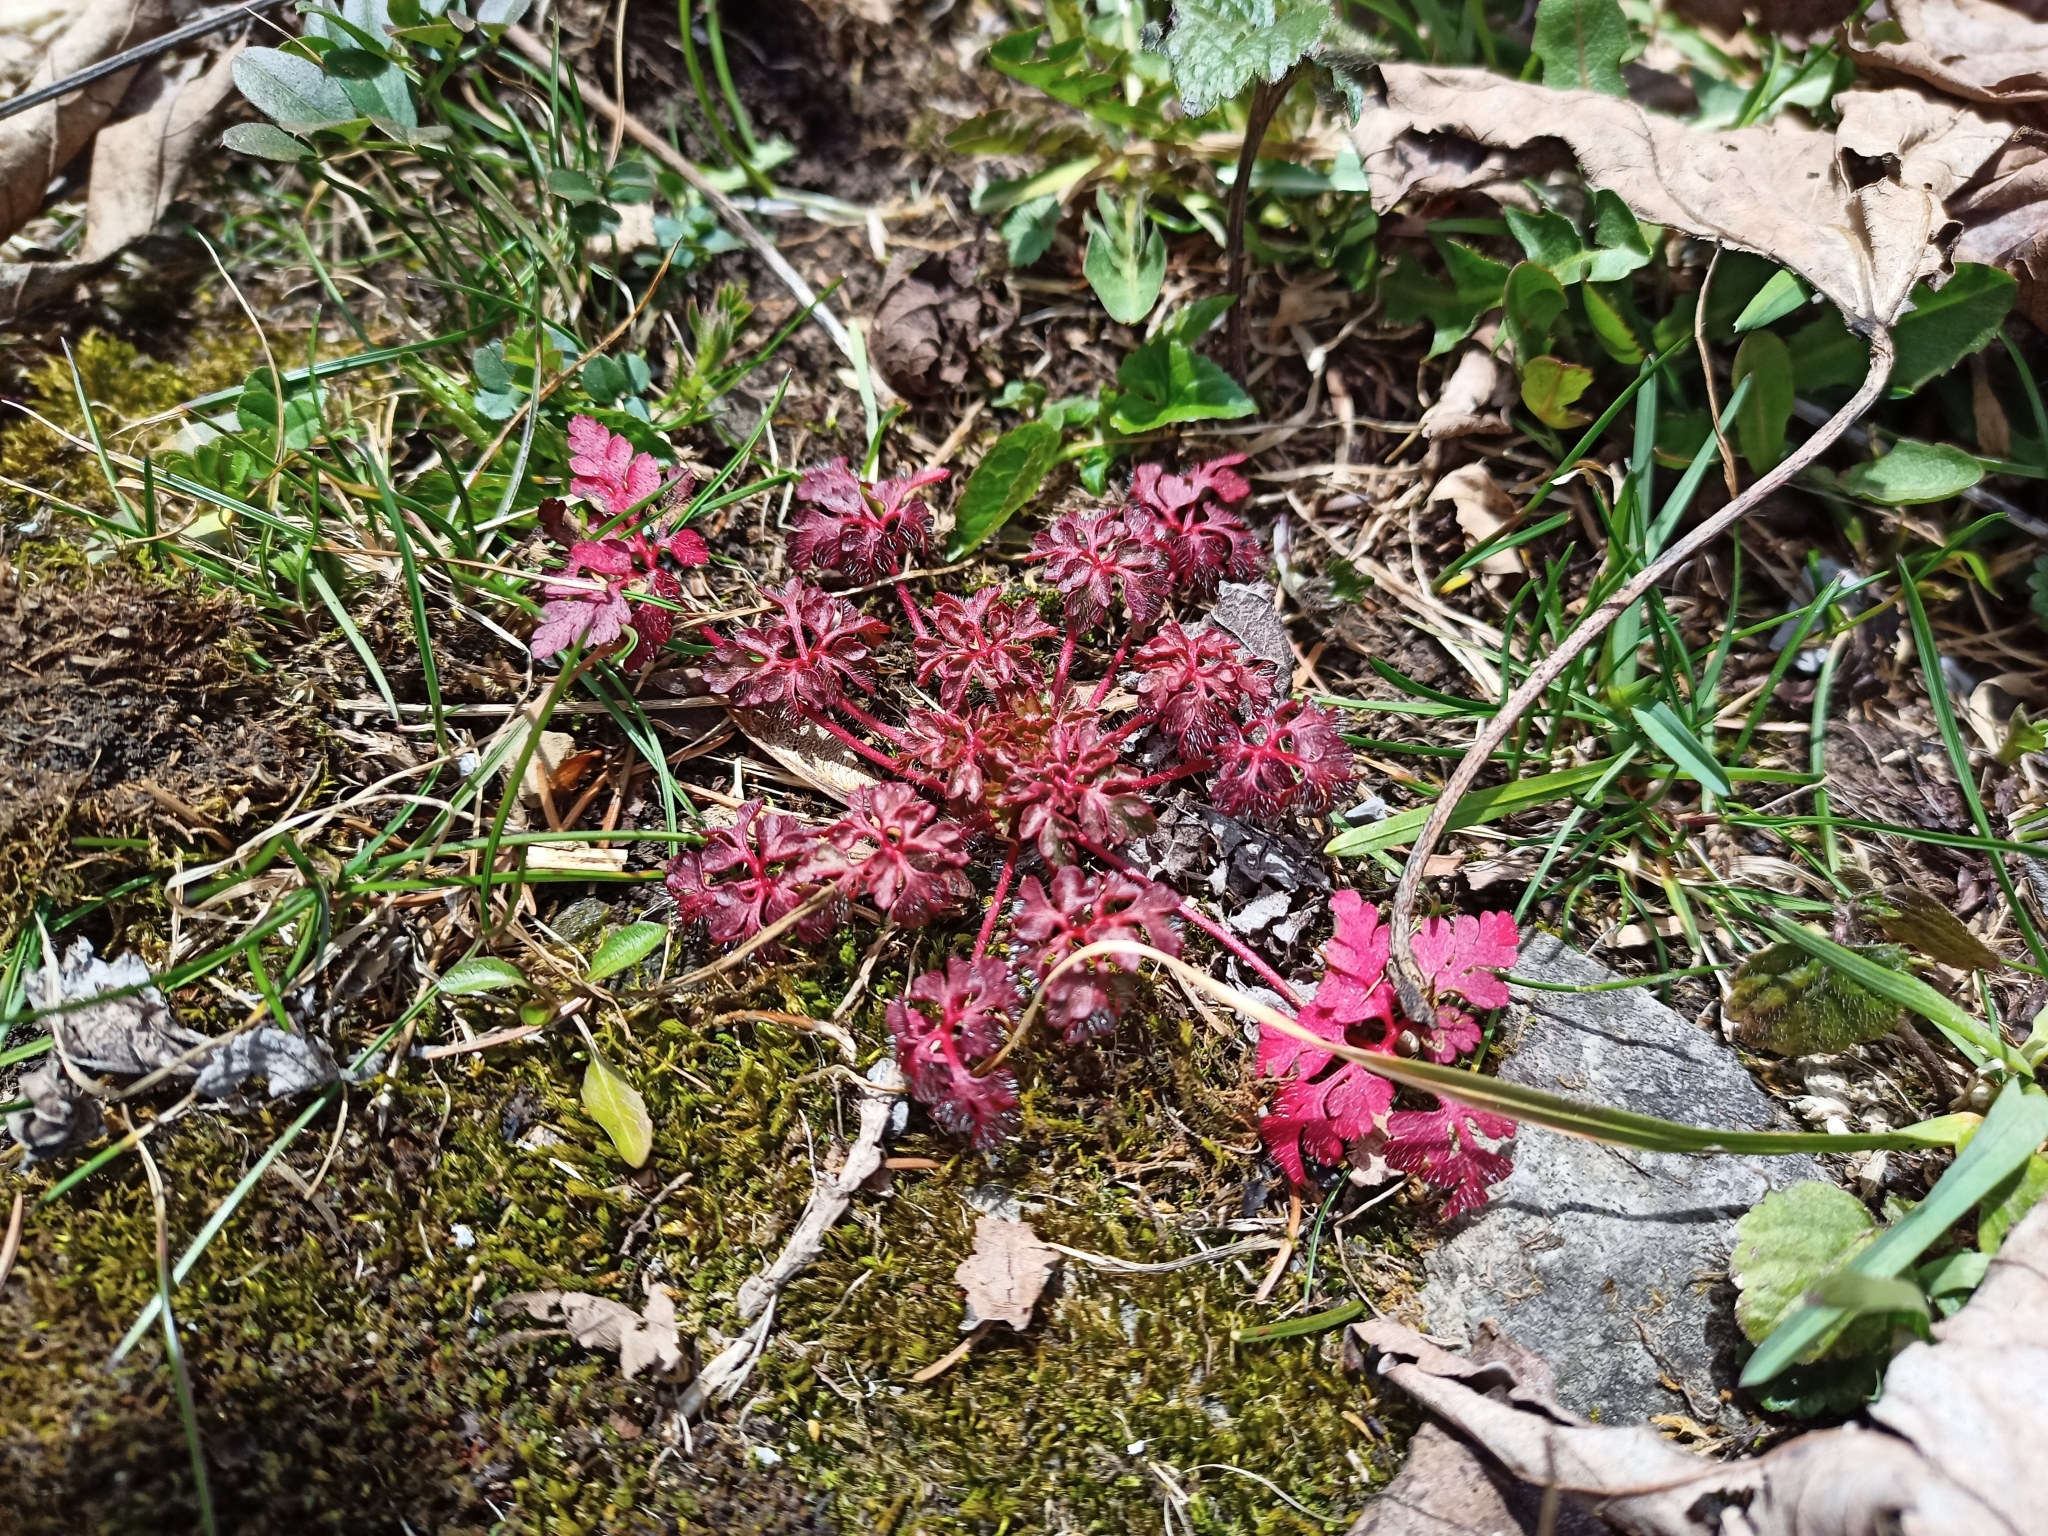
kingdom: Plantae
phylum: Tracheophyta
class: Magnoliopsida
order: Geraniales
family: Geraniaceae
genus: Geranium
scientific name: Geranium robertianum
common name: Herb-robert
